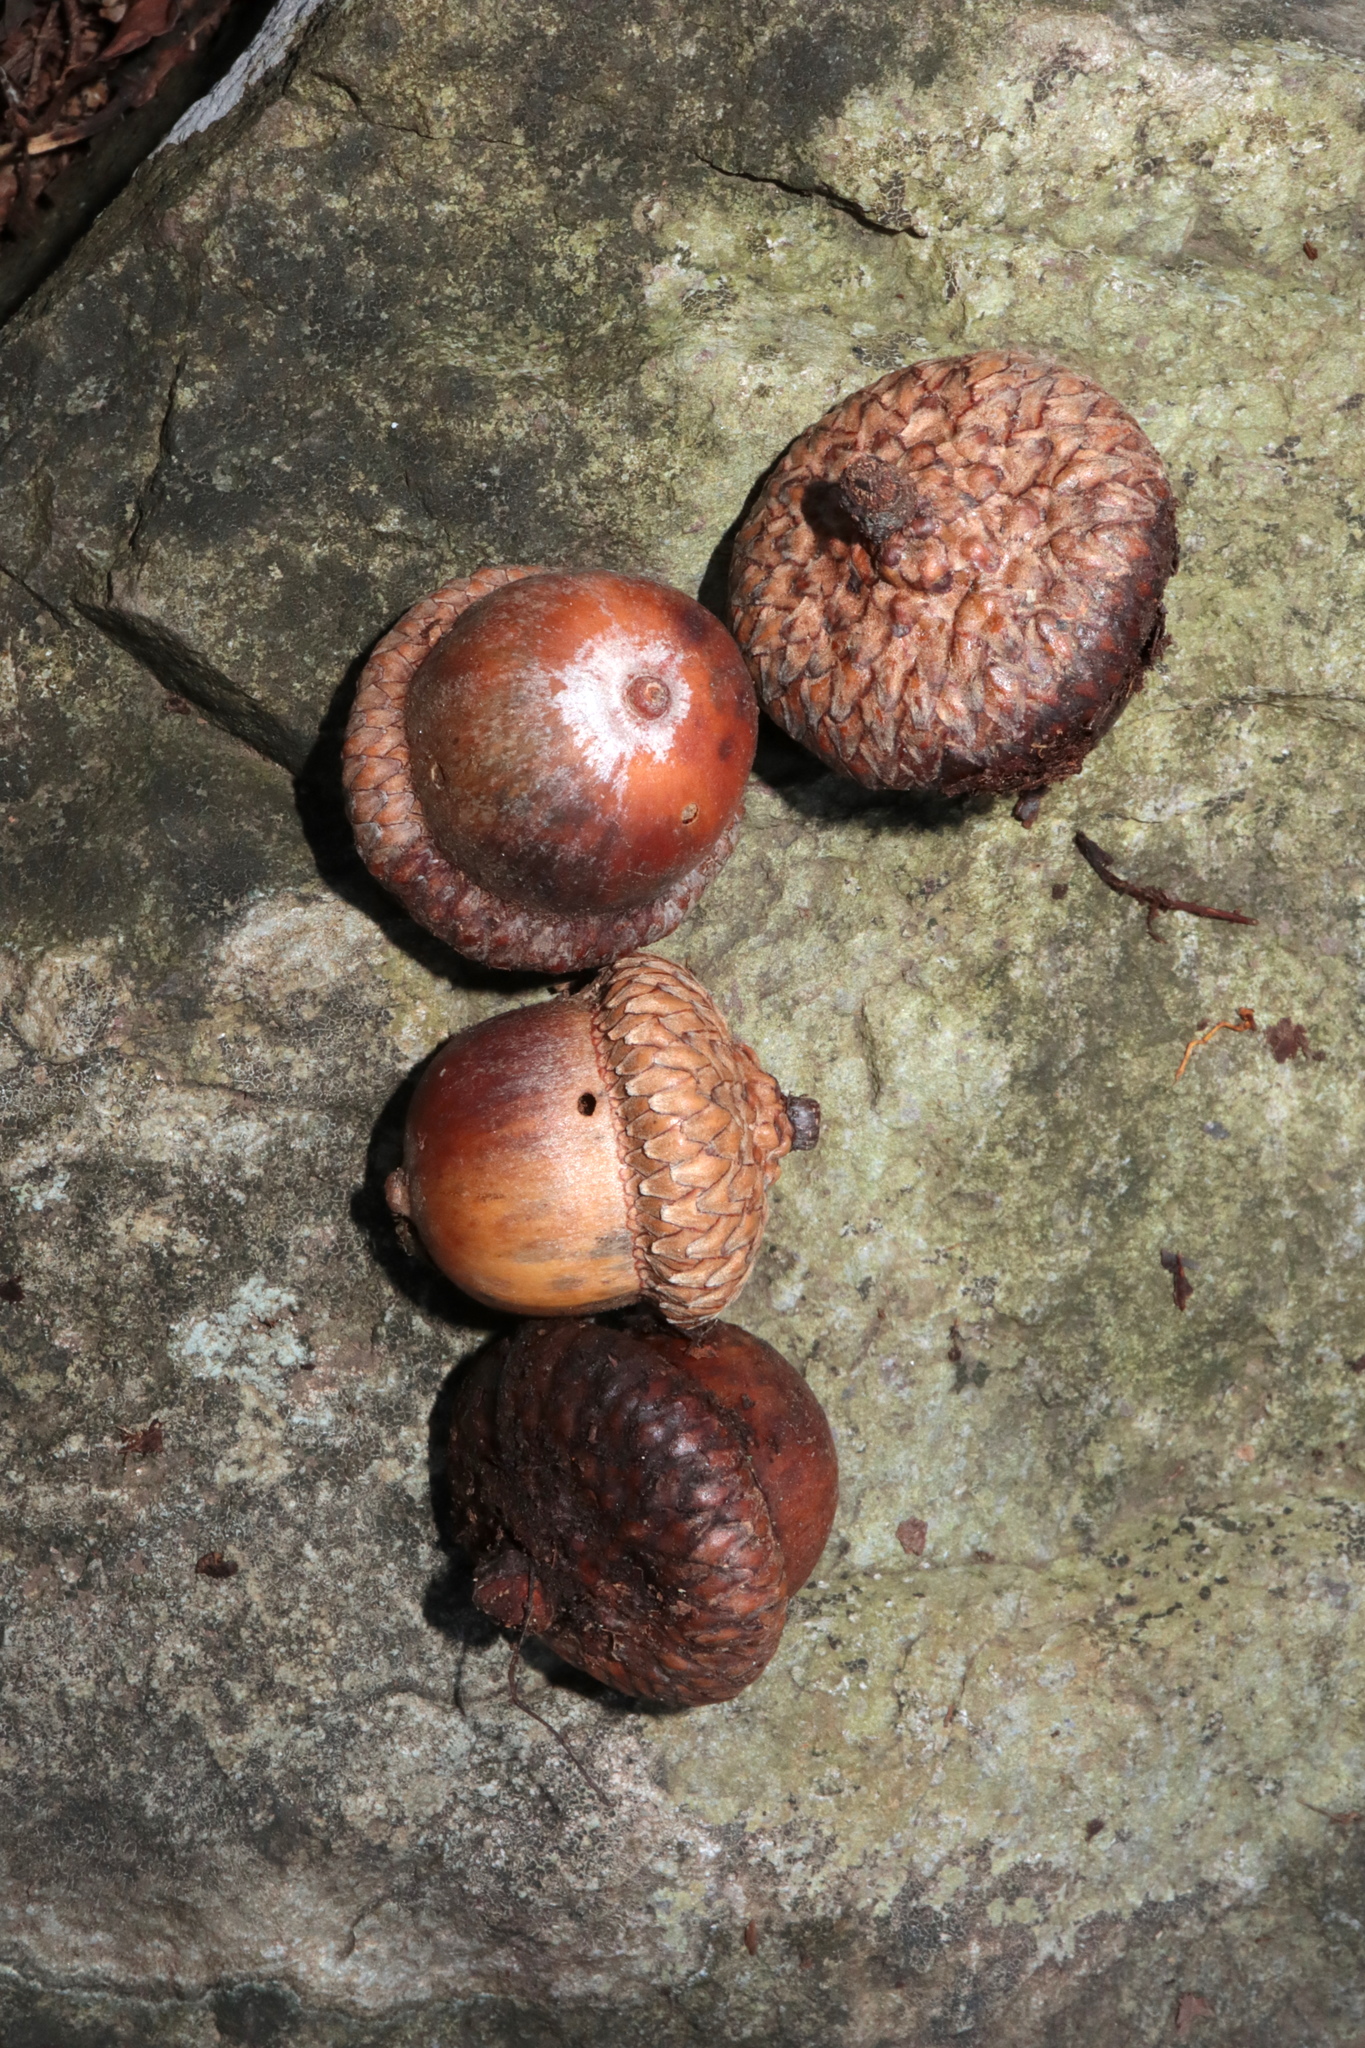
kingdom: Plantae
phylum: Tracheophyta
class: Magnoliopsida
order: Fagales
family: Fagaceae
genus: Quercus
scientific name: Quercus rubra
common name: Red oak
